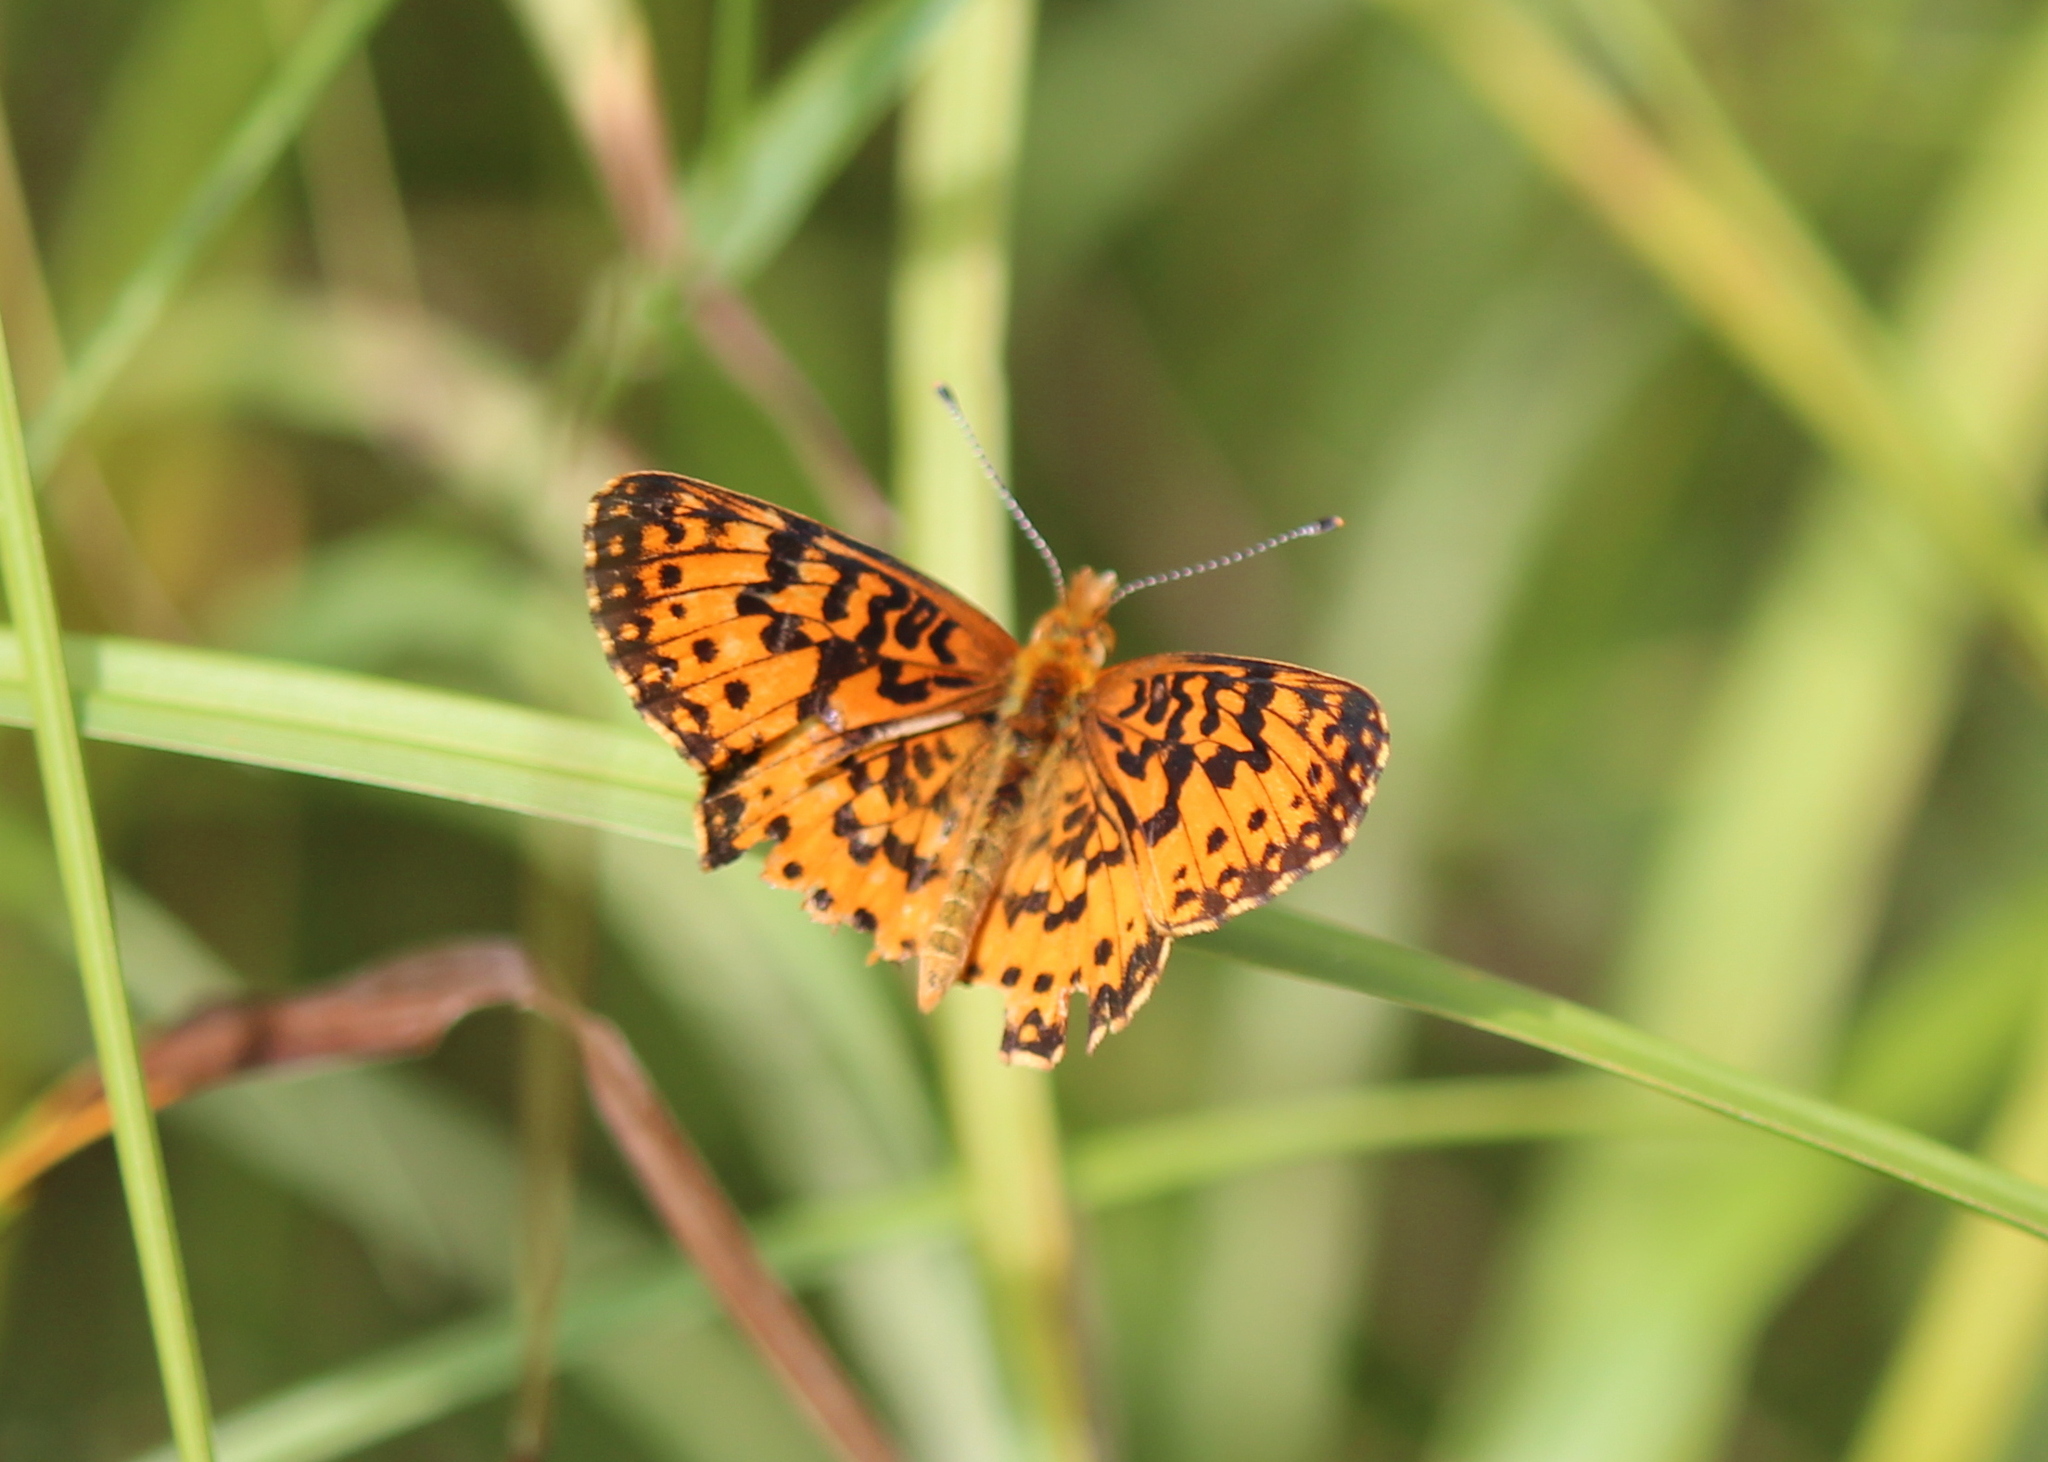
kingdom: Animalia
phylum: Arthropoda
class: Insecta
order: Lepidoptera
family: Nymphalidae
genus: Boloria
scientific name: Boloria
